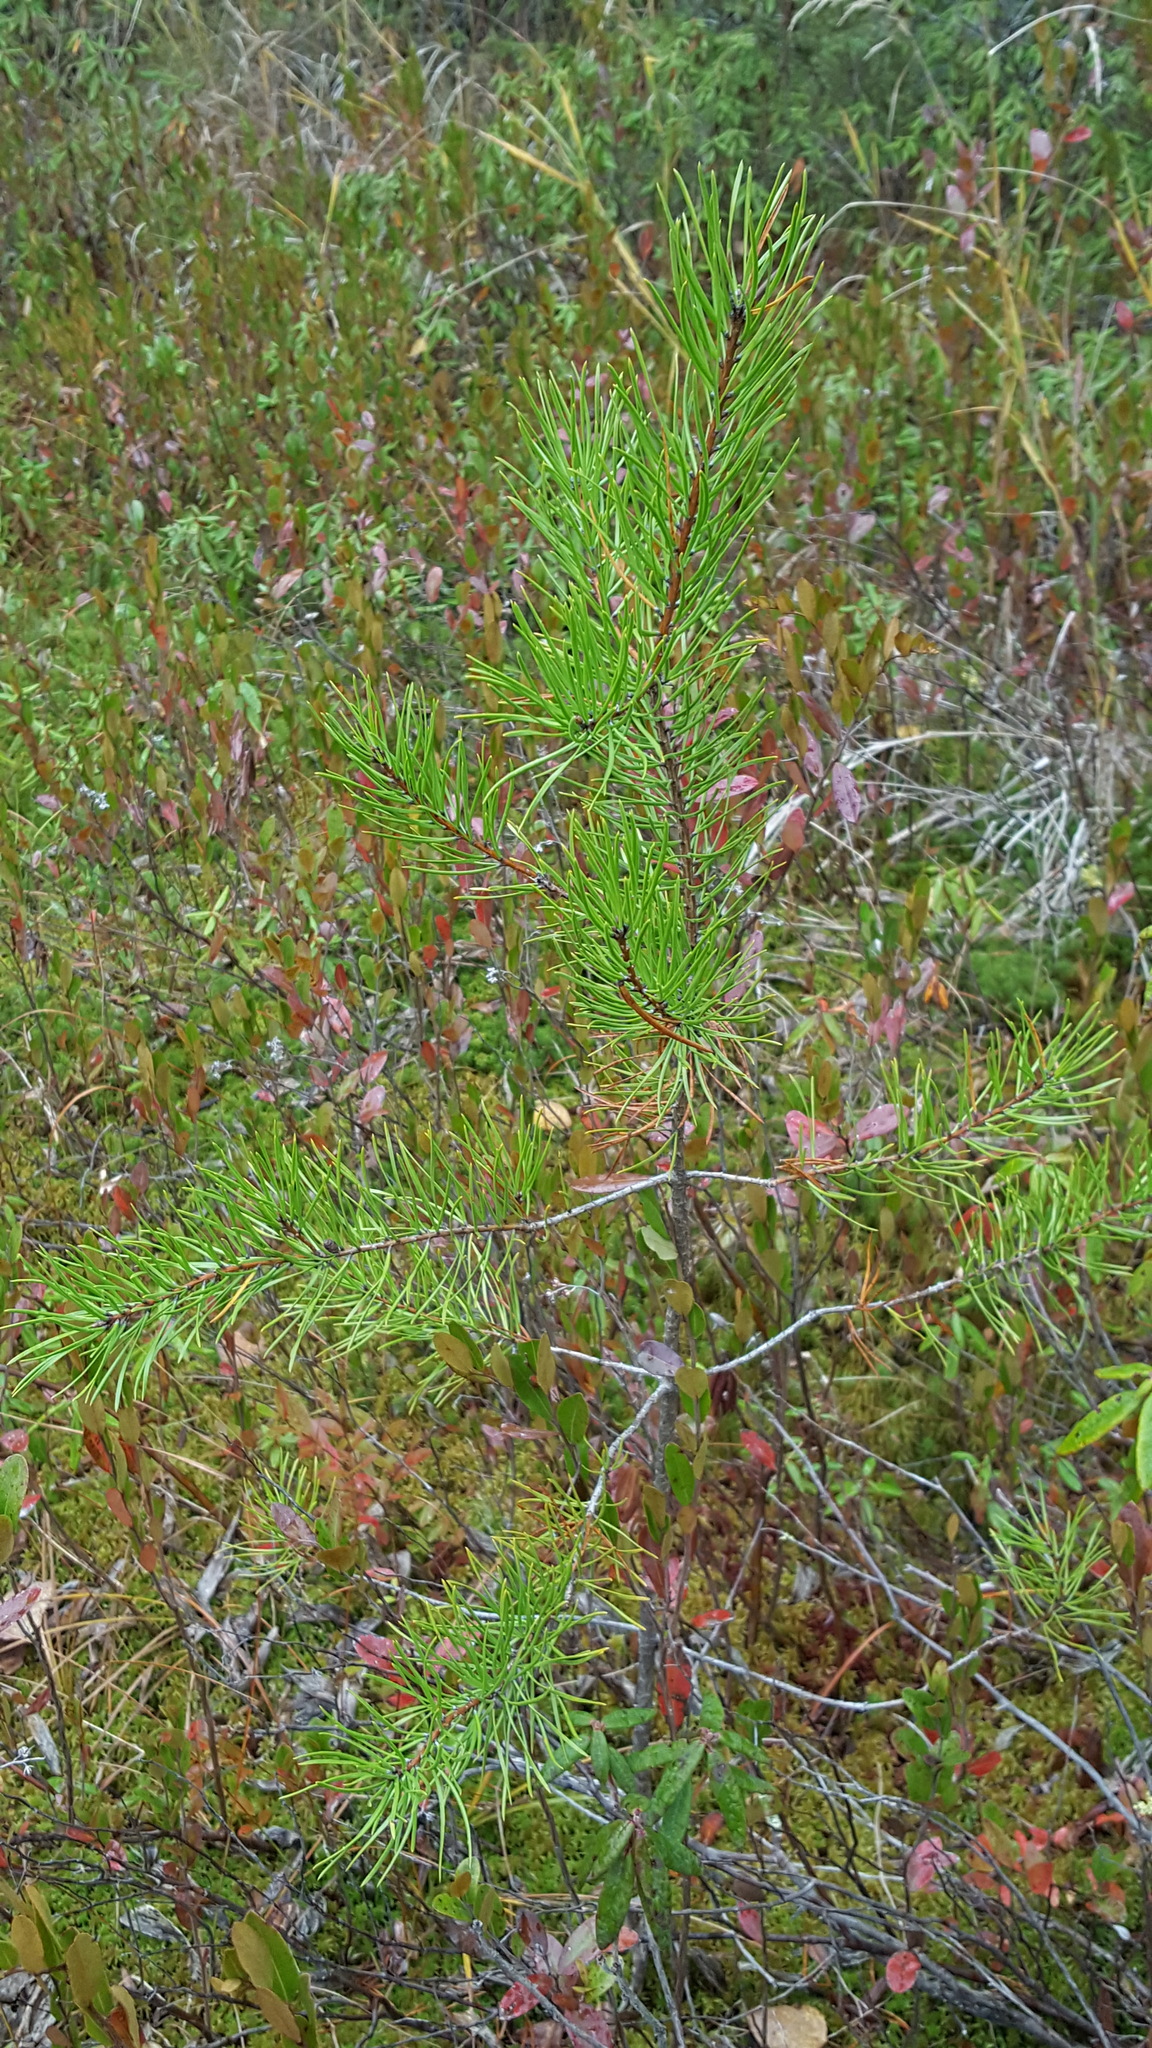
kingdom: Plantae
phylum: Tracheophyta
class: Pinopsida
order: Pinales
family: Pinaceae
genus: Pinus
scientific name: Pinus banksiana
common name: Jack pine
